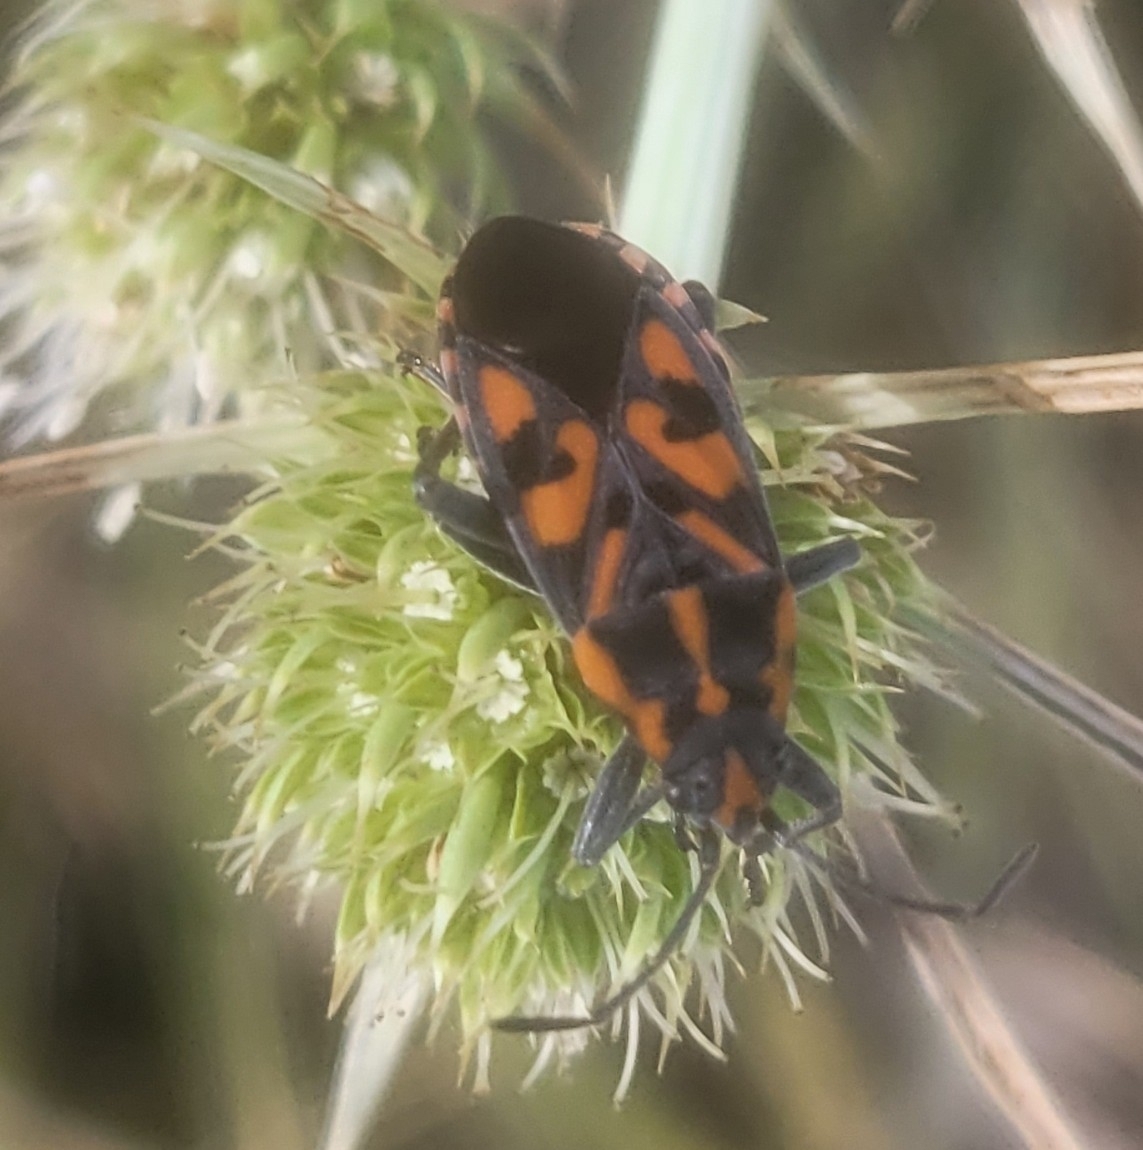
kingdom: Animalia
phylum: Arthropoda
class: Insecta
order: Hemiptera
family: Lygaeidae
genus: Spilostethus
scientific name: Spilostethus saxatilis
